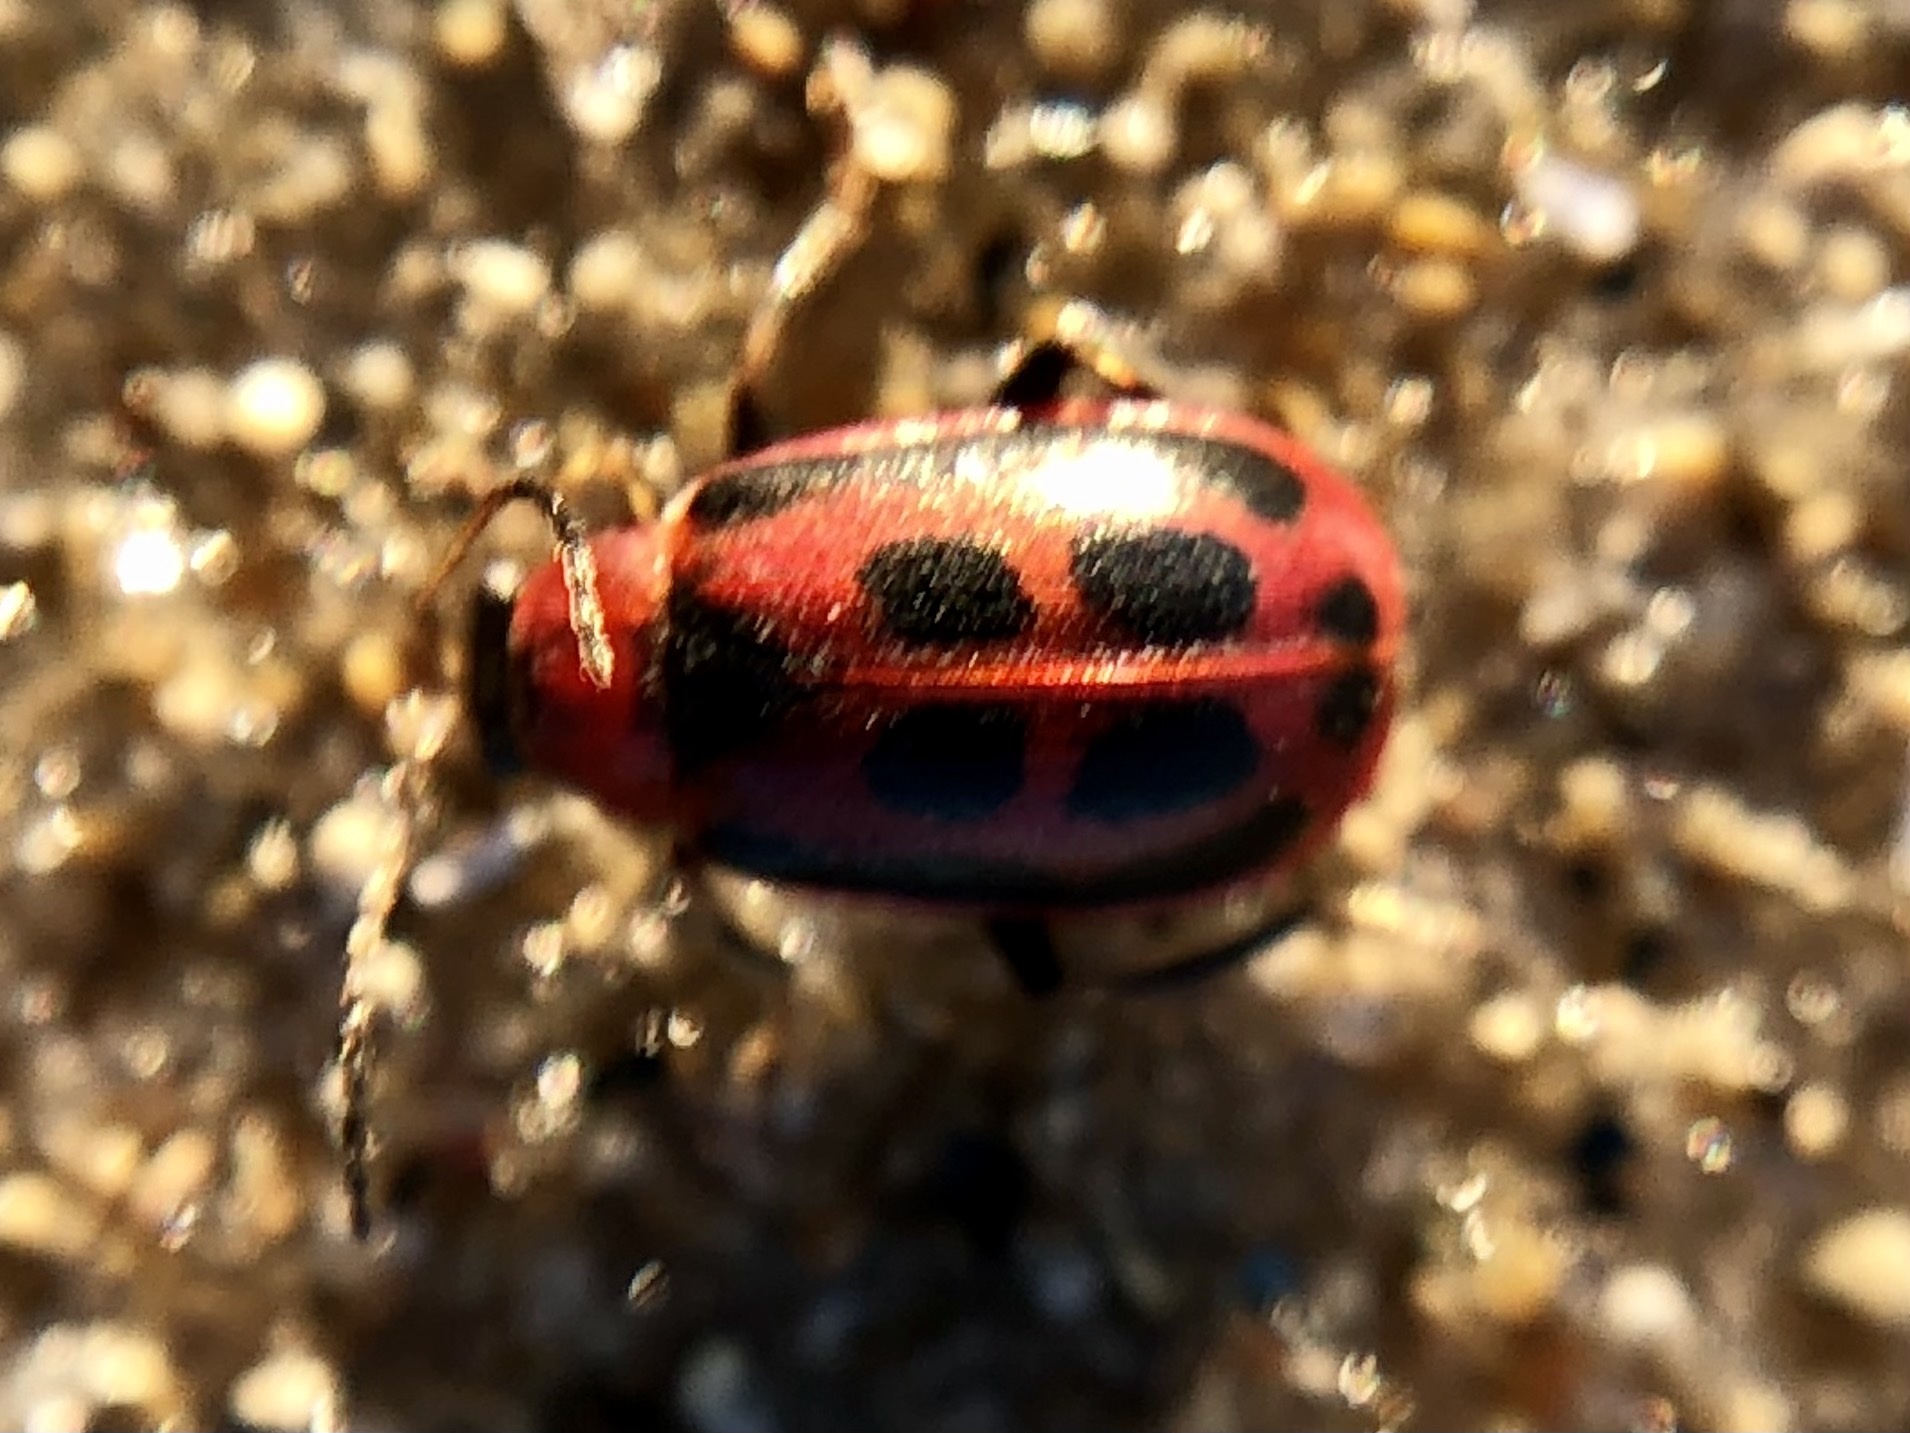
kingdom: Animalia
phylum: Arthropoda
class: Insecta
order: Coleoptera
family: Chrysomelidae
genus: Cerotoma
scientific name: Cerotoma trifurcata
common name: Bean leaf beetle
